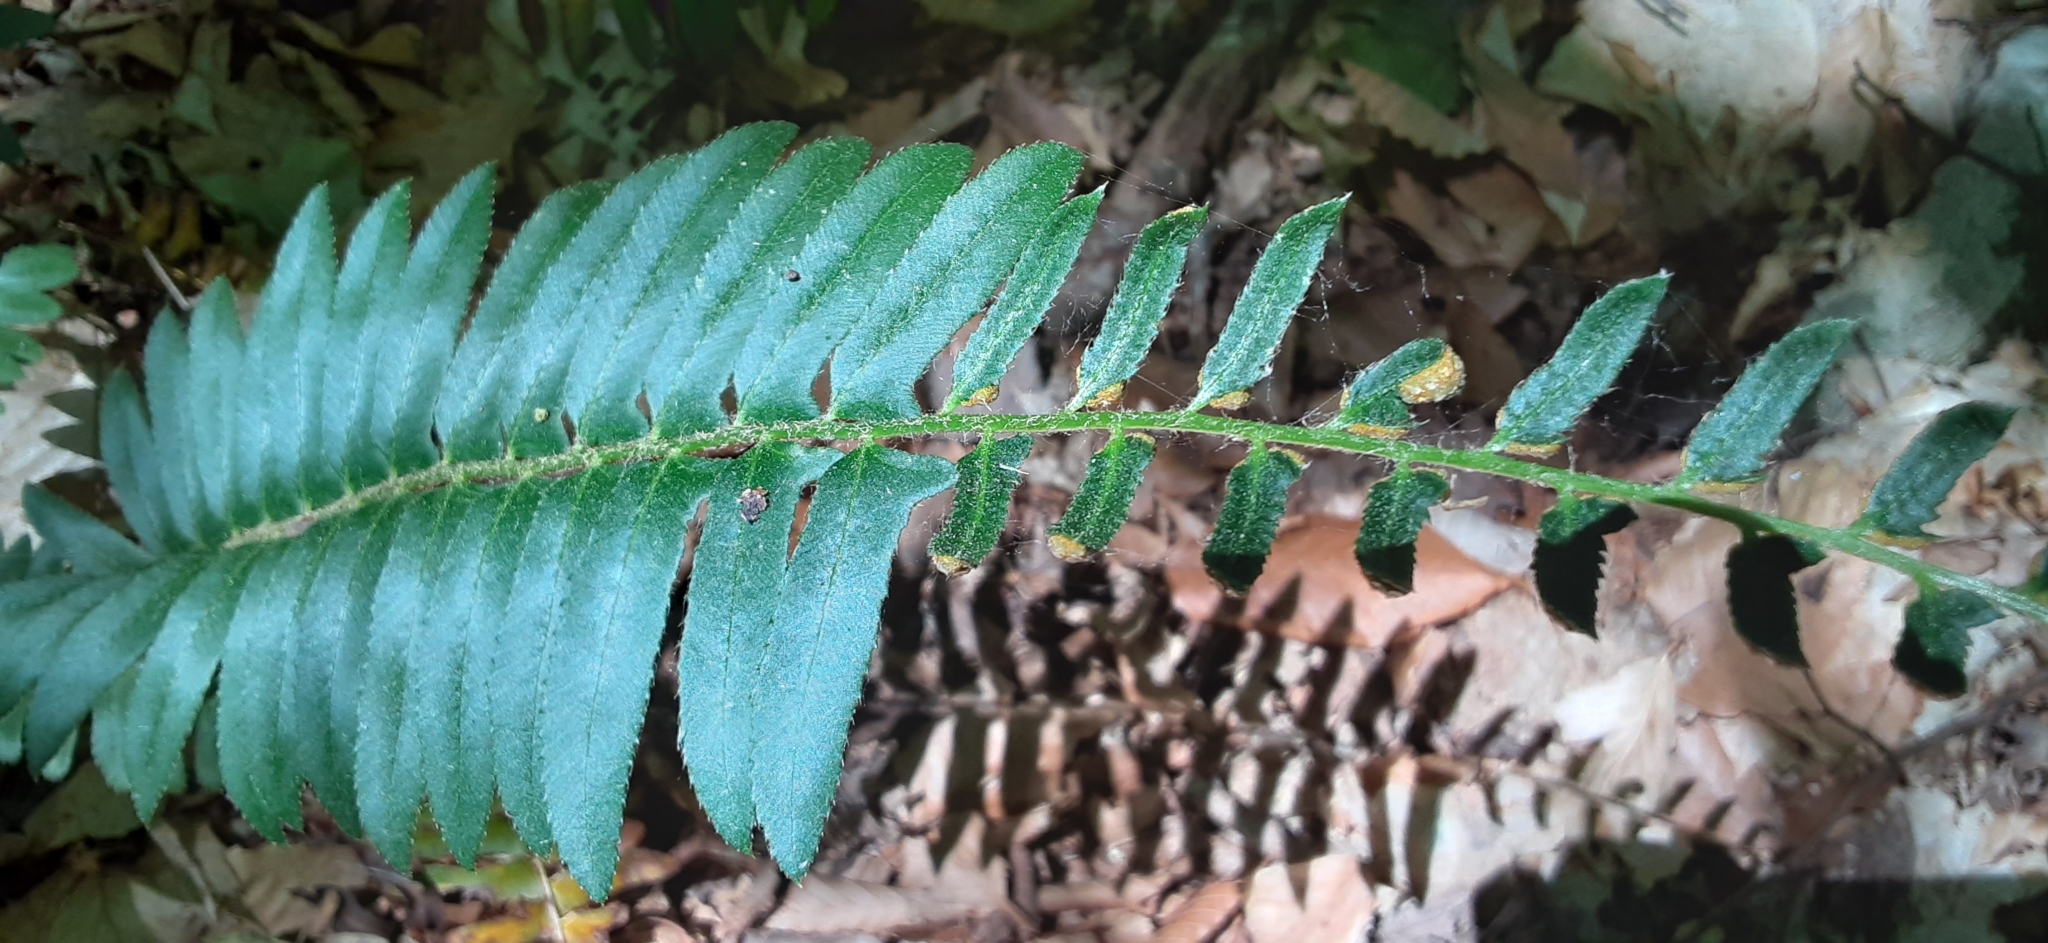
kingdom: Plantae
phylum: Tracheophyta
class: Polypodiopsida
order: Polypodiales
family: Dryopteridaceae
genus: Polystichum
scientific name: Polystichum acrostichoides
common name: Christmas fern
